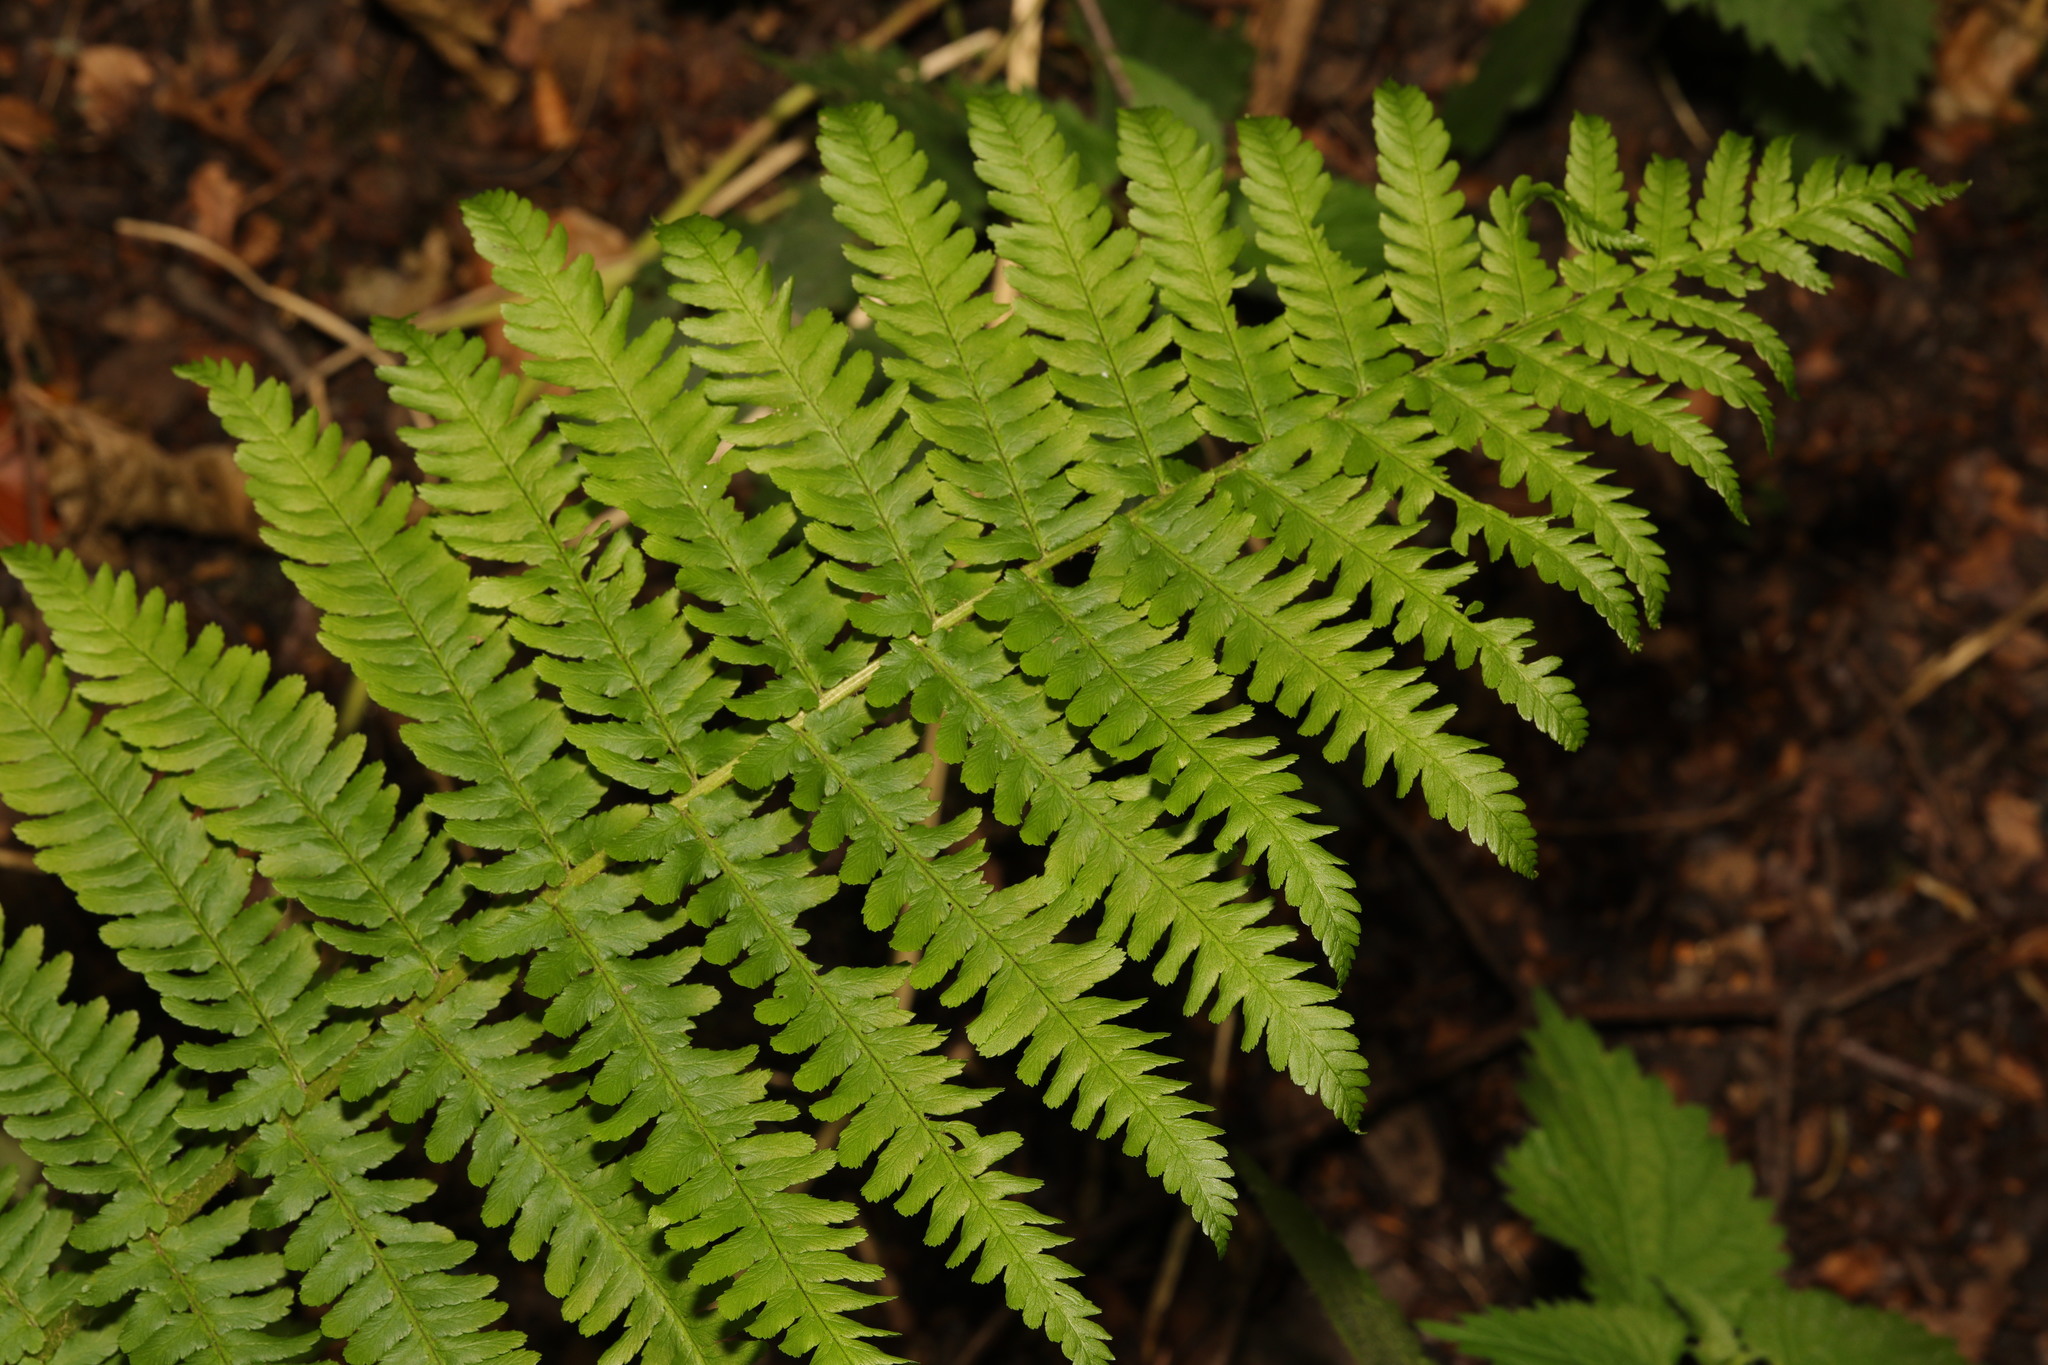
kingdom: Plantae
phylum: Tracheophyta
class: Polypodiopsida
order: Polypodiales
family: Dryopteridaceae
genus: Dryopteris
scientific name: Dryopteris filix-mas
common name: Male fern
